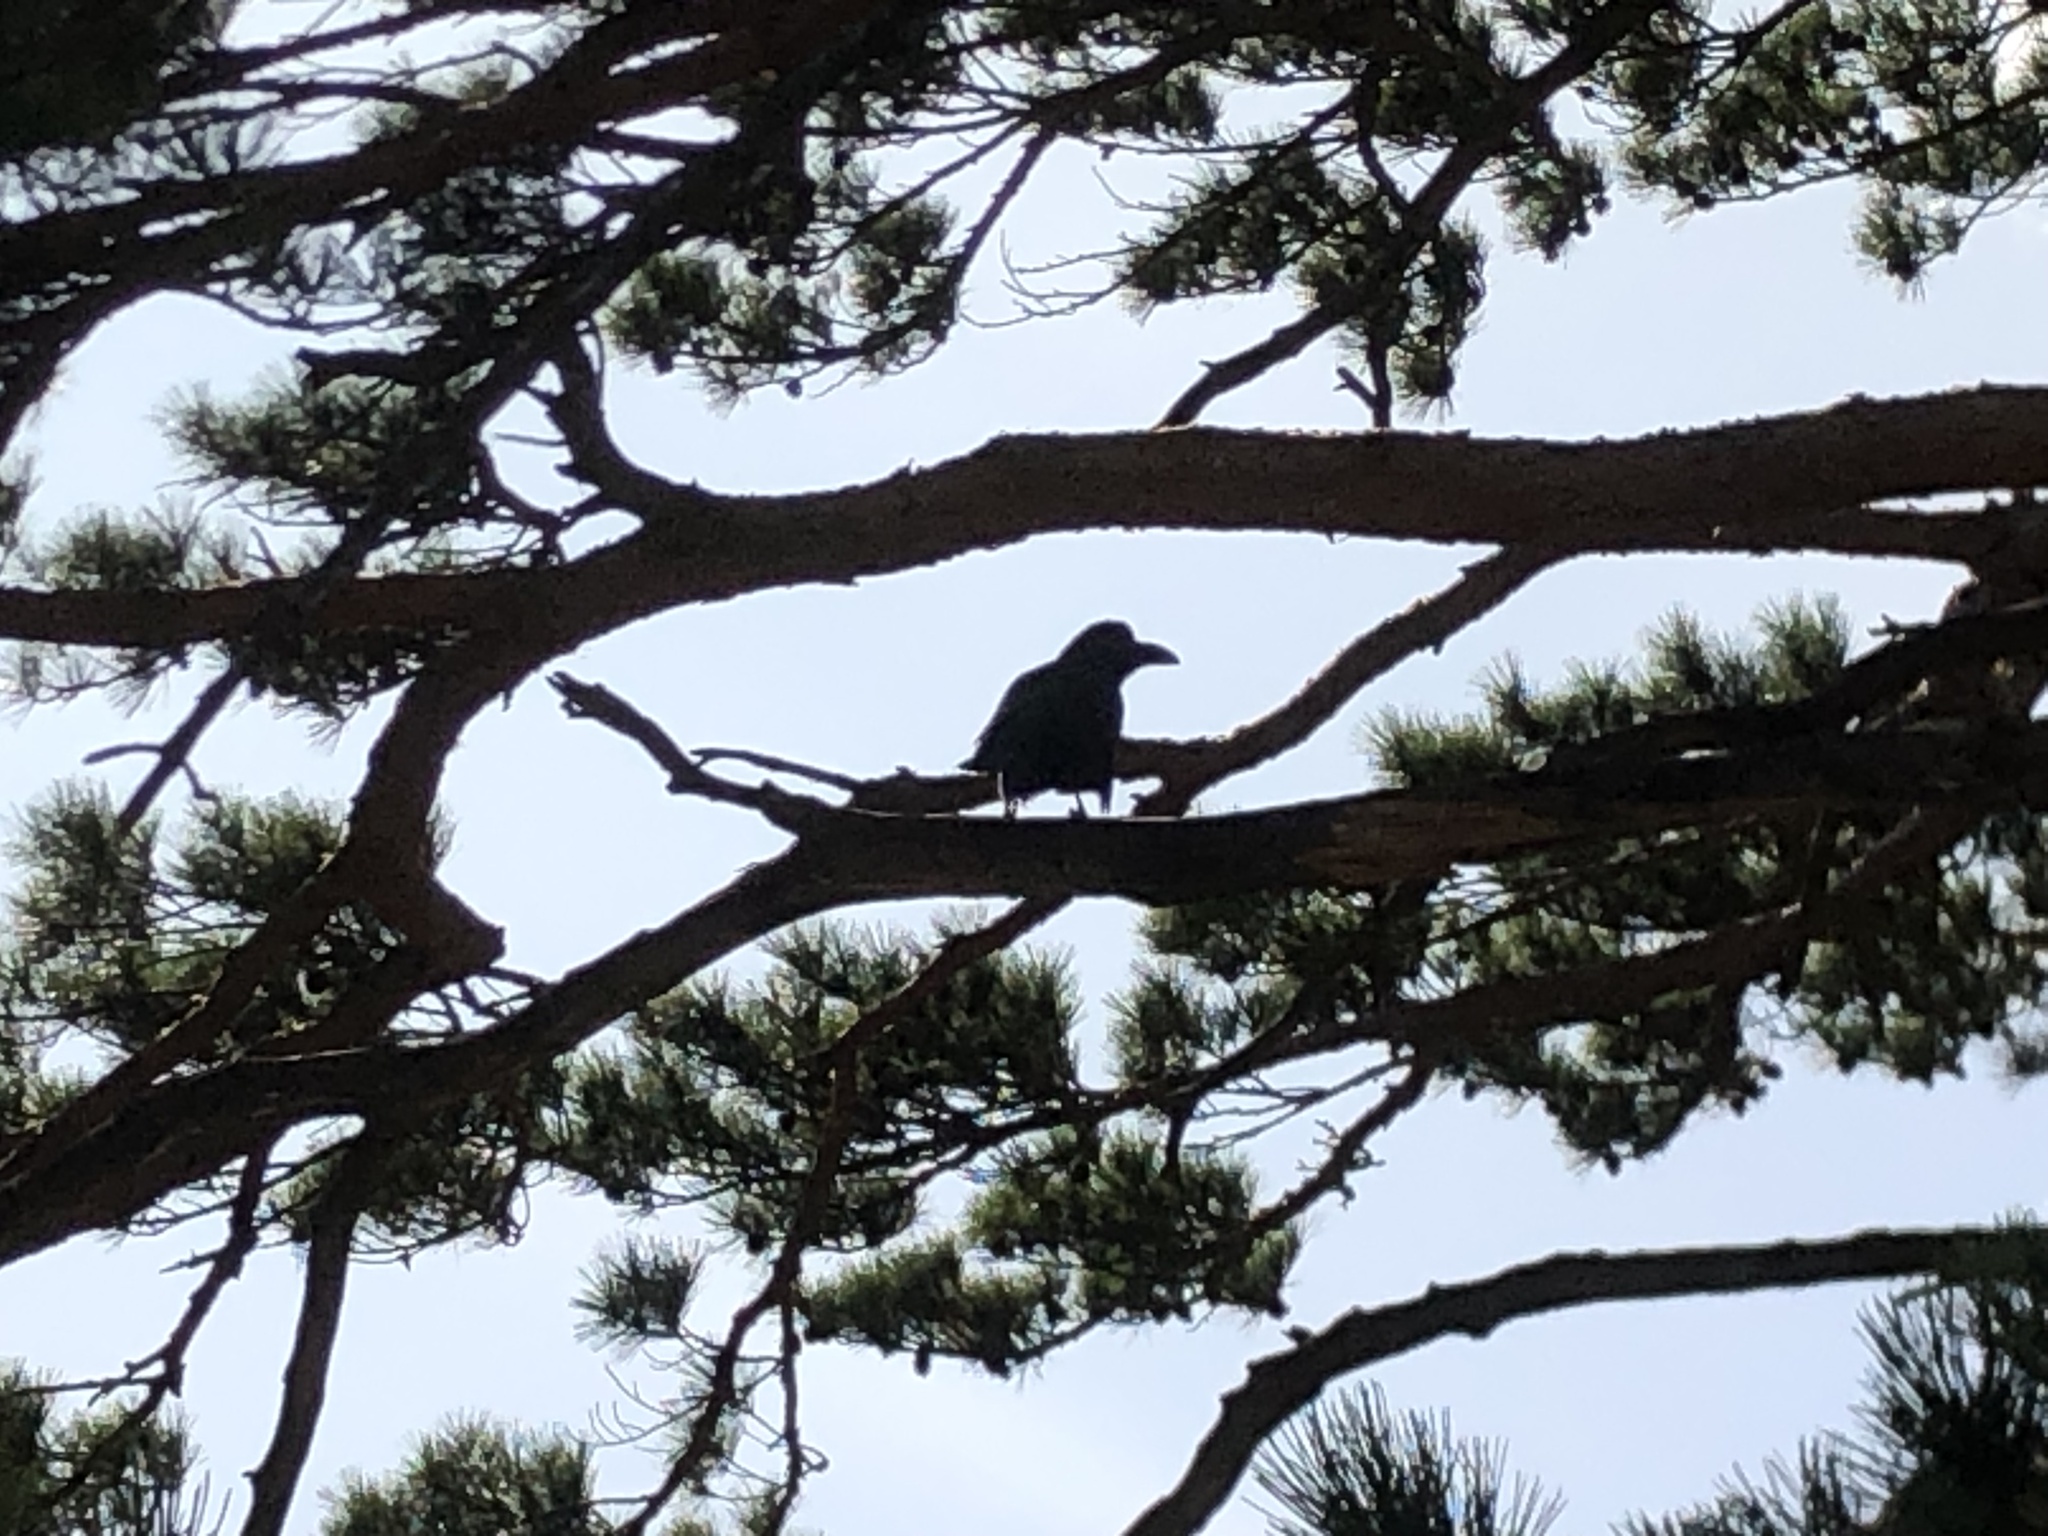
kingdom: Animalia
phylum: Chordata
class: Aves
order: Passeriformes
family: Corvidae
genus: Corvus
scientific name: Corvus macrorhynchos
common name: Large-billed crow
